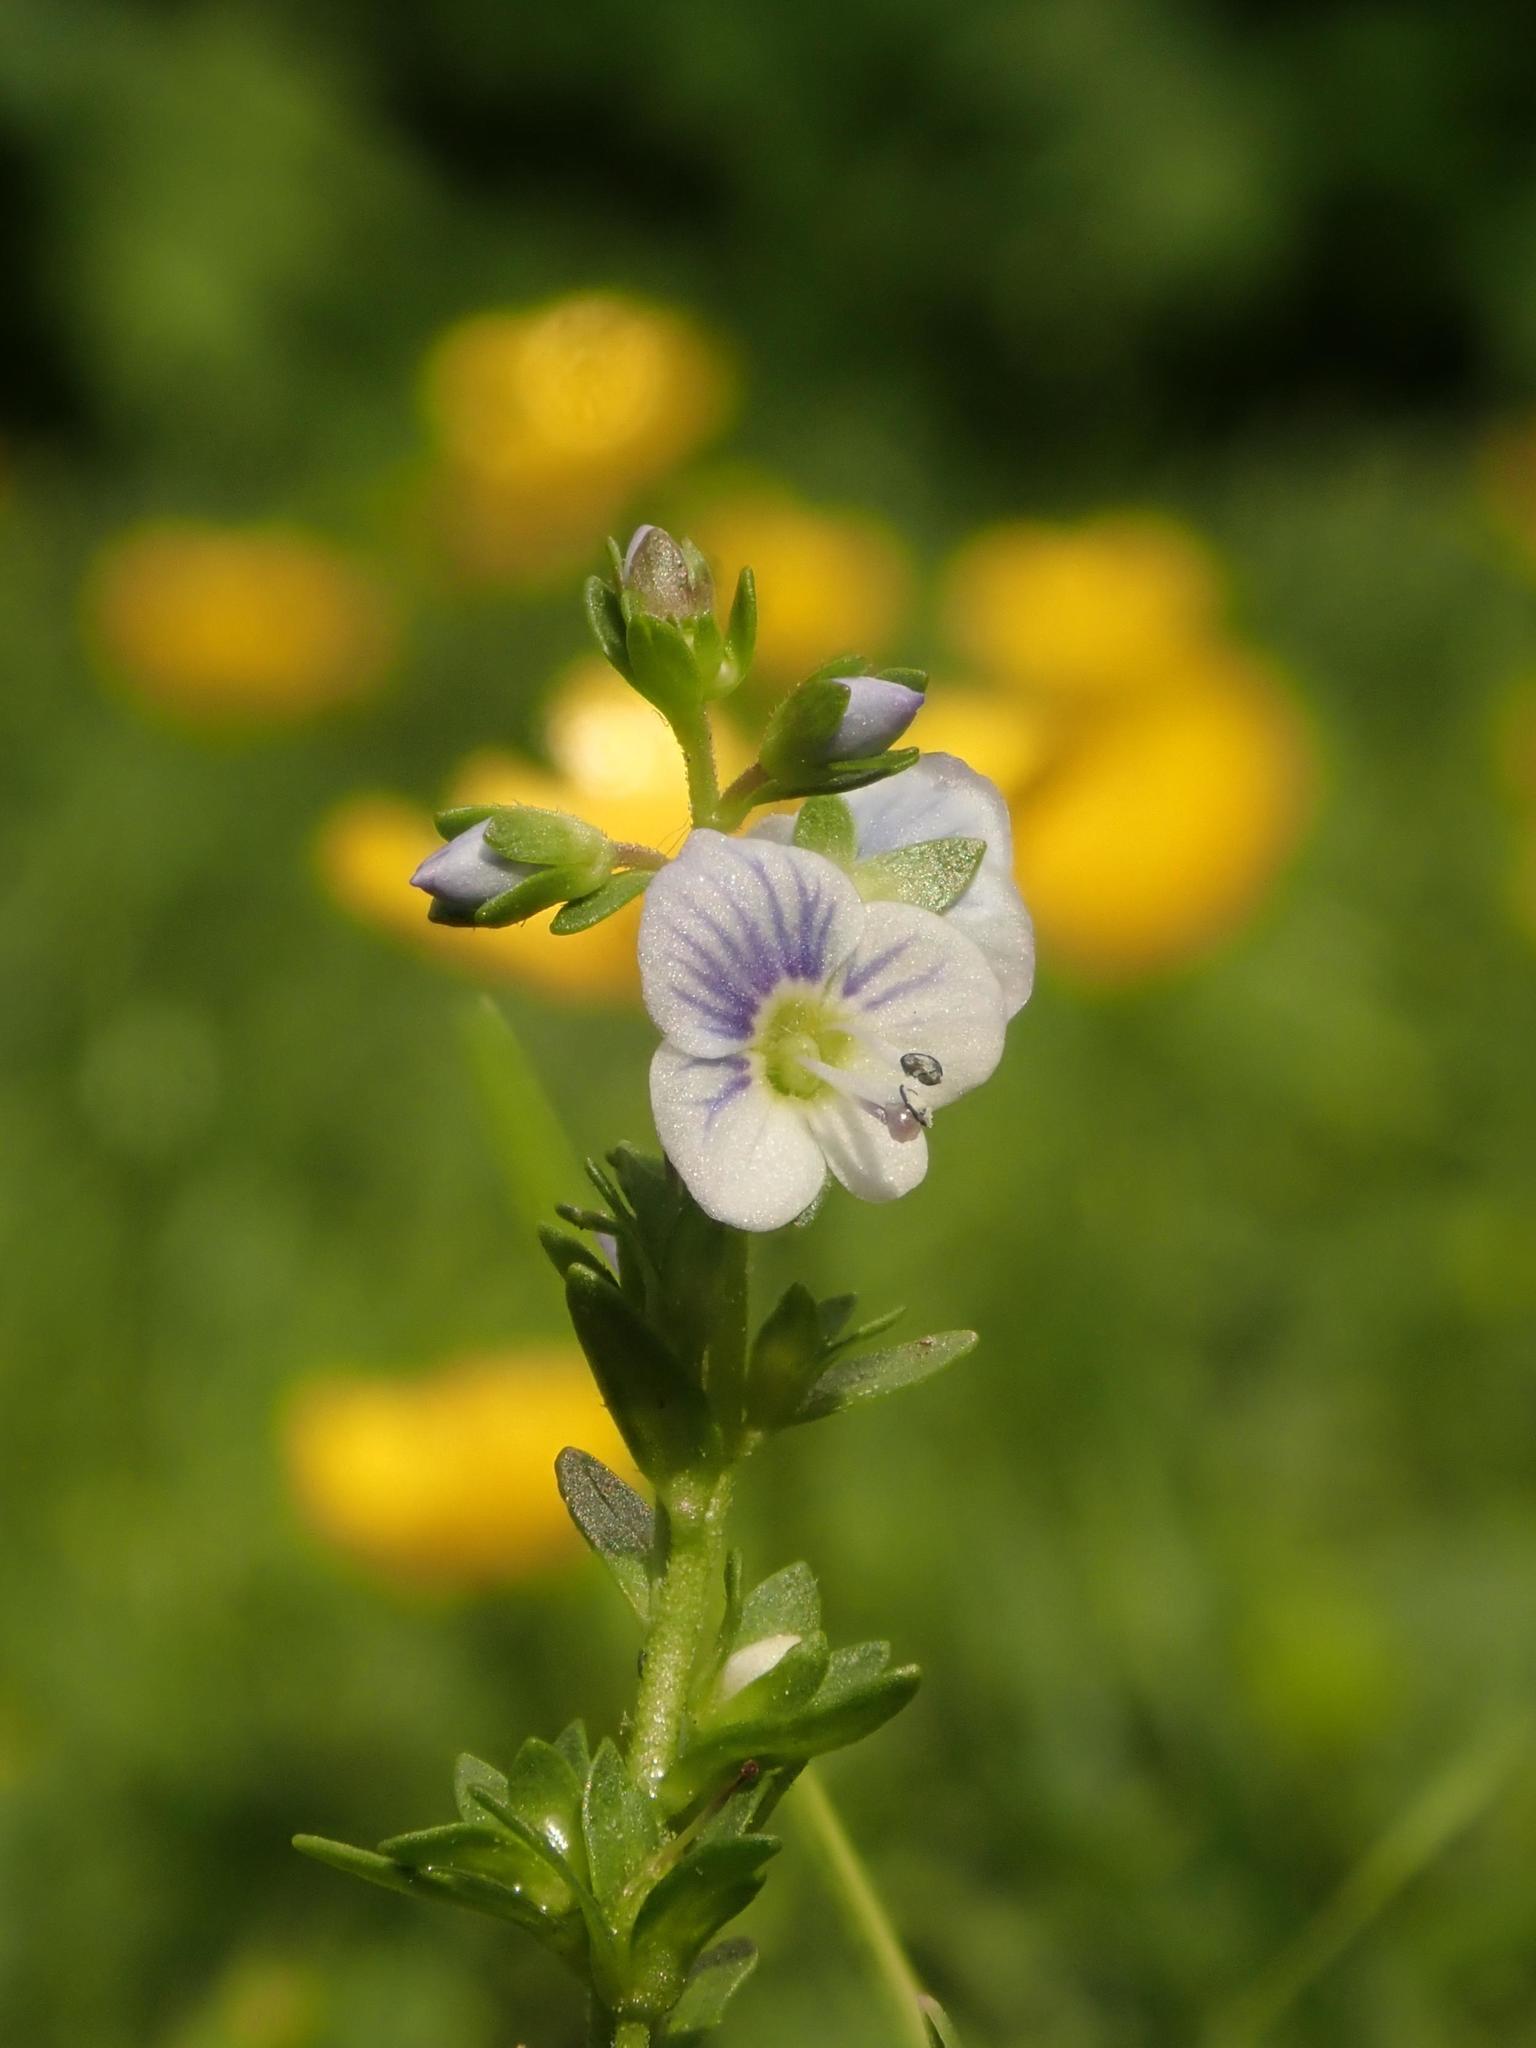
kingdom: Plantae
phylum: Tracheophyta
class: Magnoliopsida
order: Lamiales
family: Plantaginaceae
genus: Veronica
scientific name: Veronica serpyllifolia
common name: Thyme-leaved speedwell
